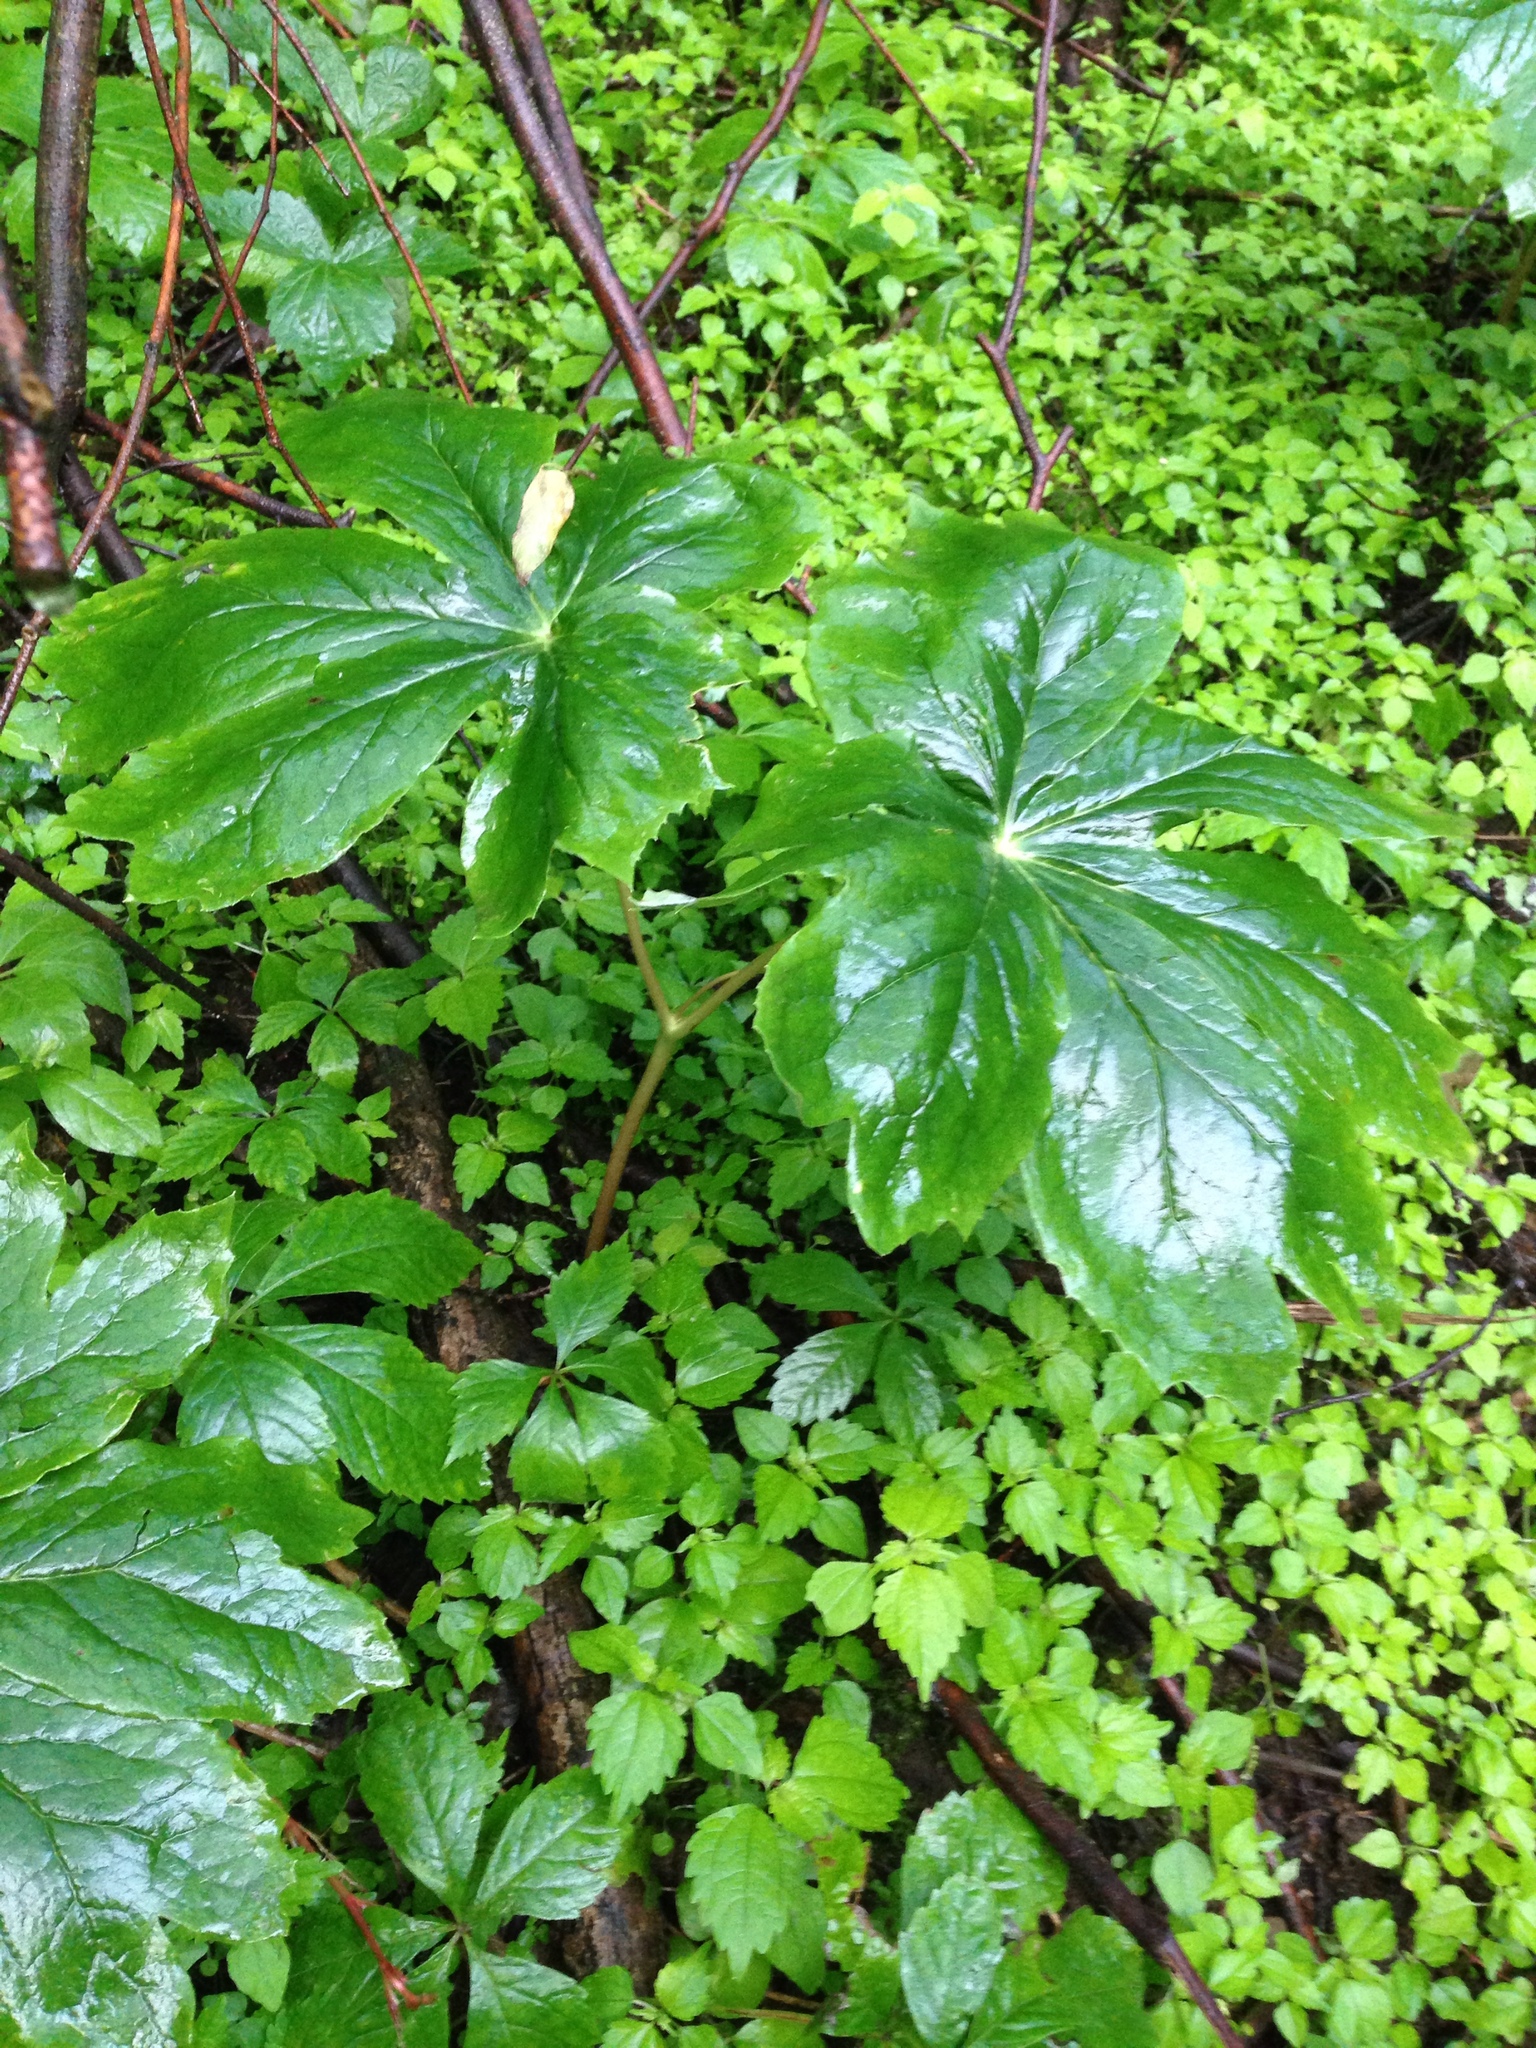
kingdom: Plantae
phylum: Tracheophyta
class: Magnoliopsida
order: Ranunculales
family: Berberidaceae
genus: Podophyllum
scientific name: Podophyllum peltatum
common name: Wild mandrake
